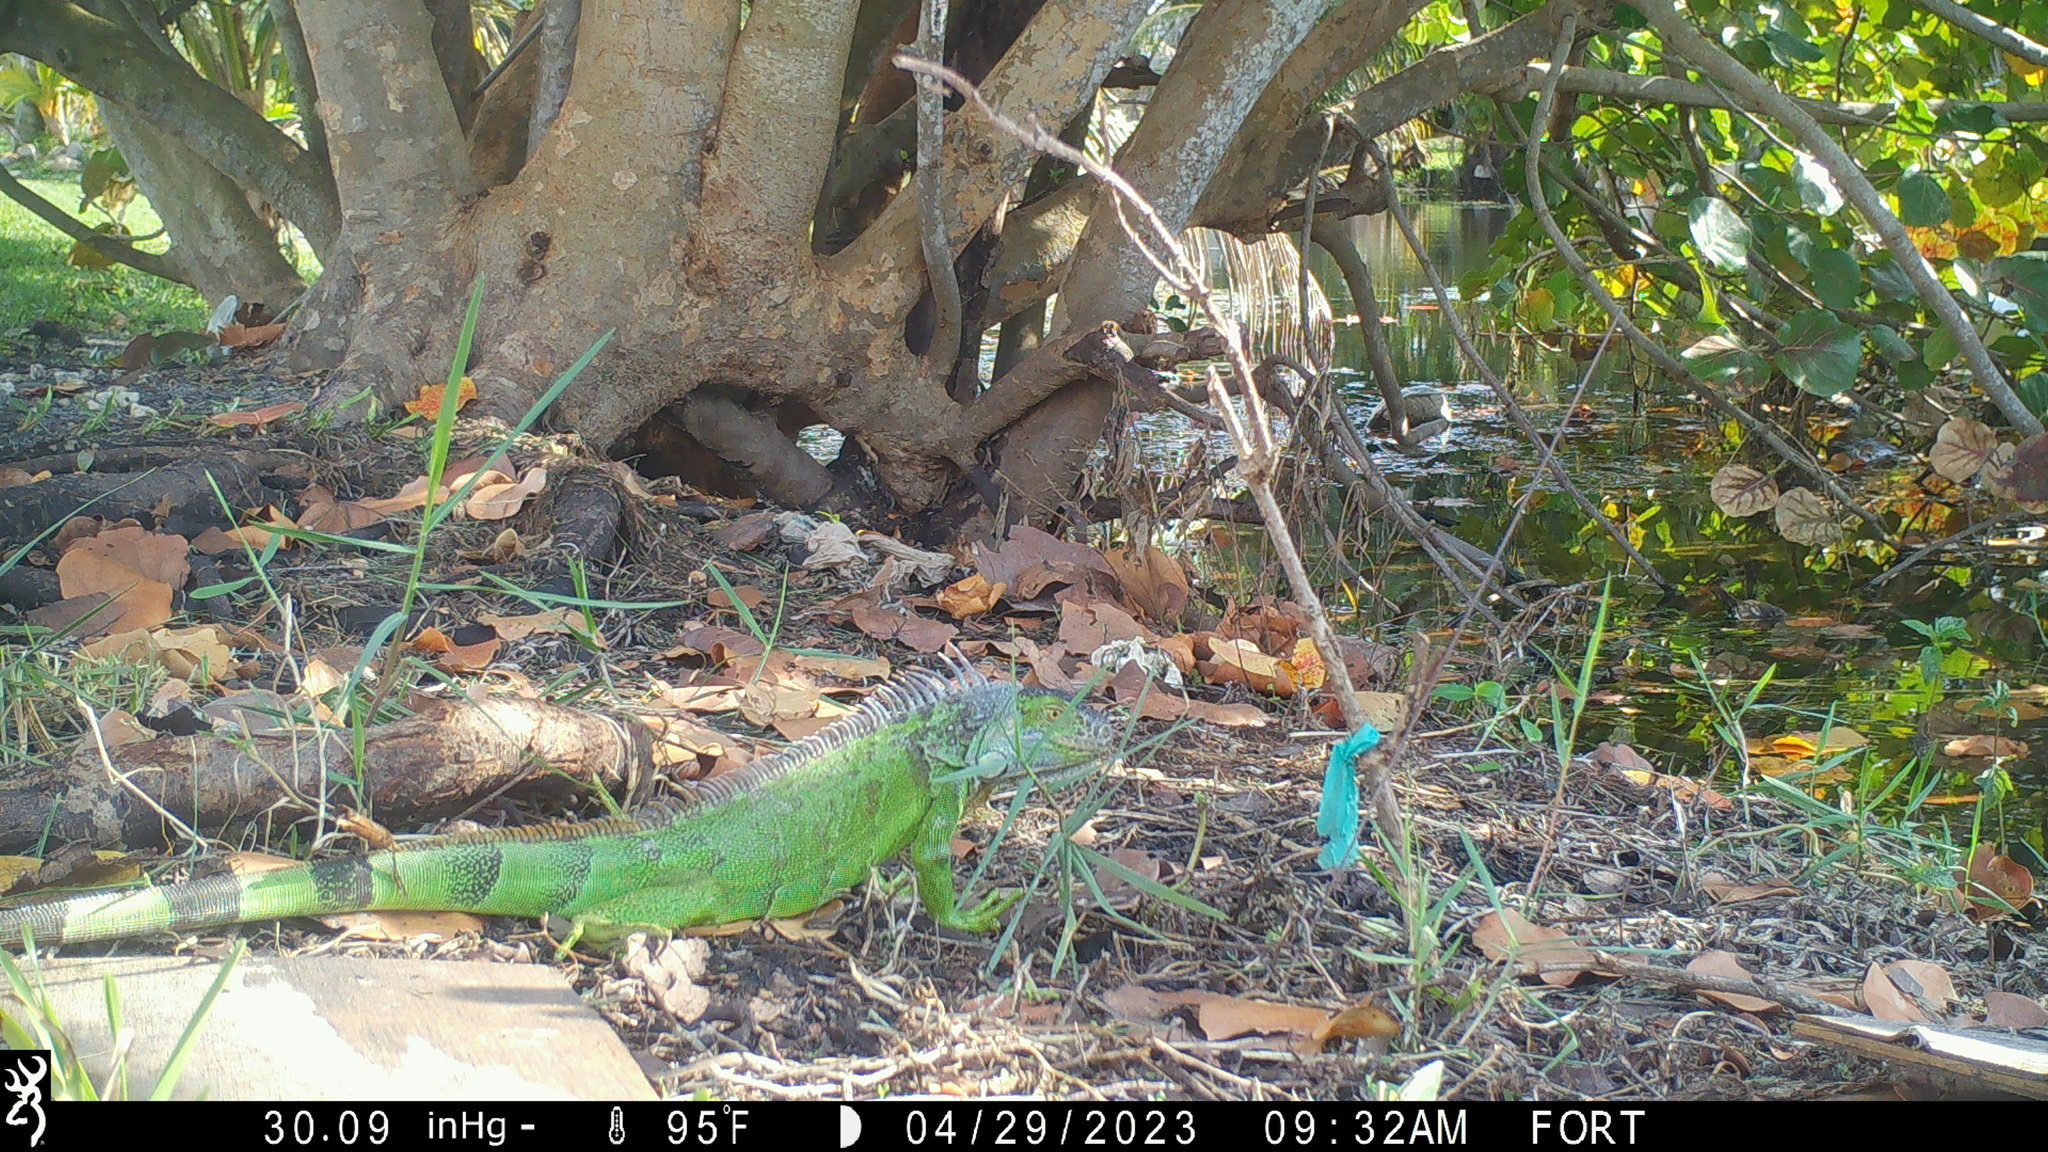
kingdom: Animalia
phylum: Chordata
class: Squamata
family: Iguanidae
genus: Iguana
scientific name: Iguana iguana
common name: Green iguana
